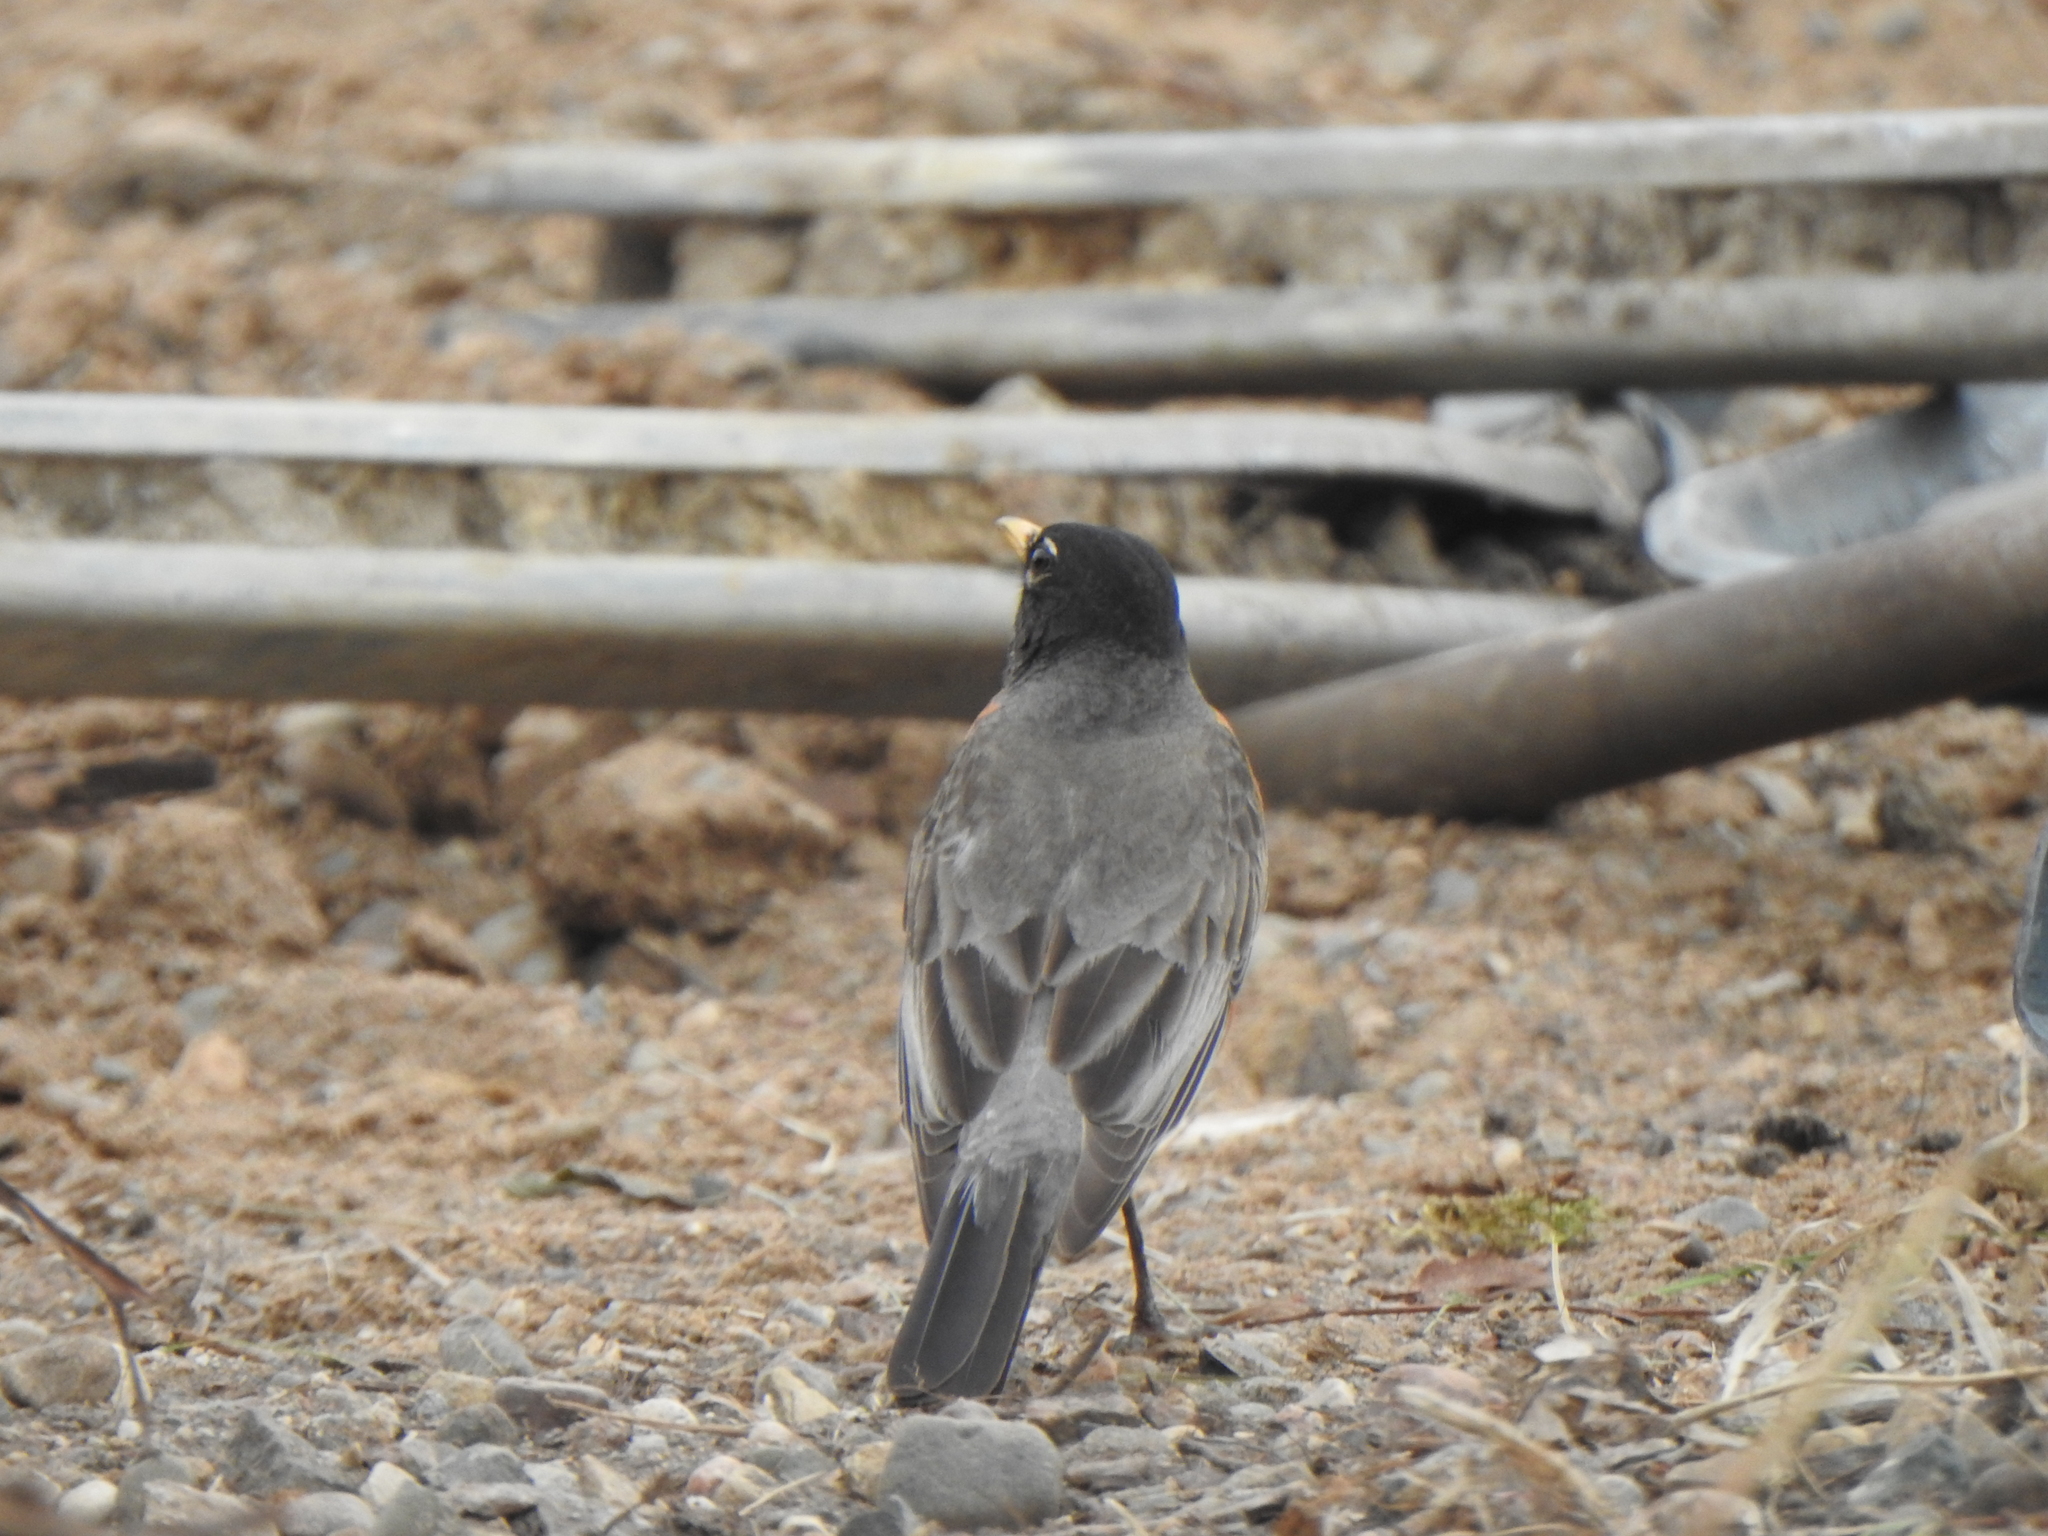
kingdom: Animalia
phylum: Chordata
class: Aves
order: Passeriformes
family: Turdidae
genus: Turdus
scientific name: Turdus migratorius
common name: American robin
